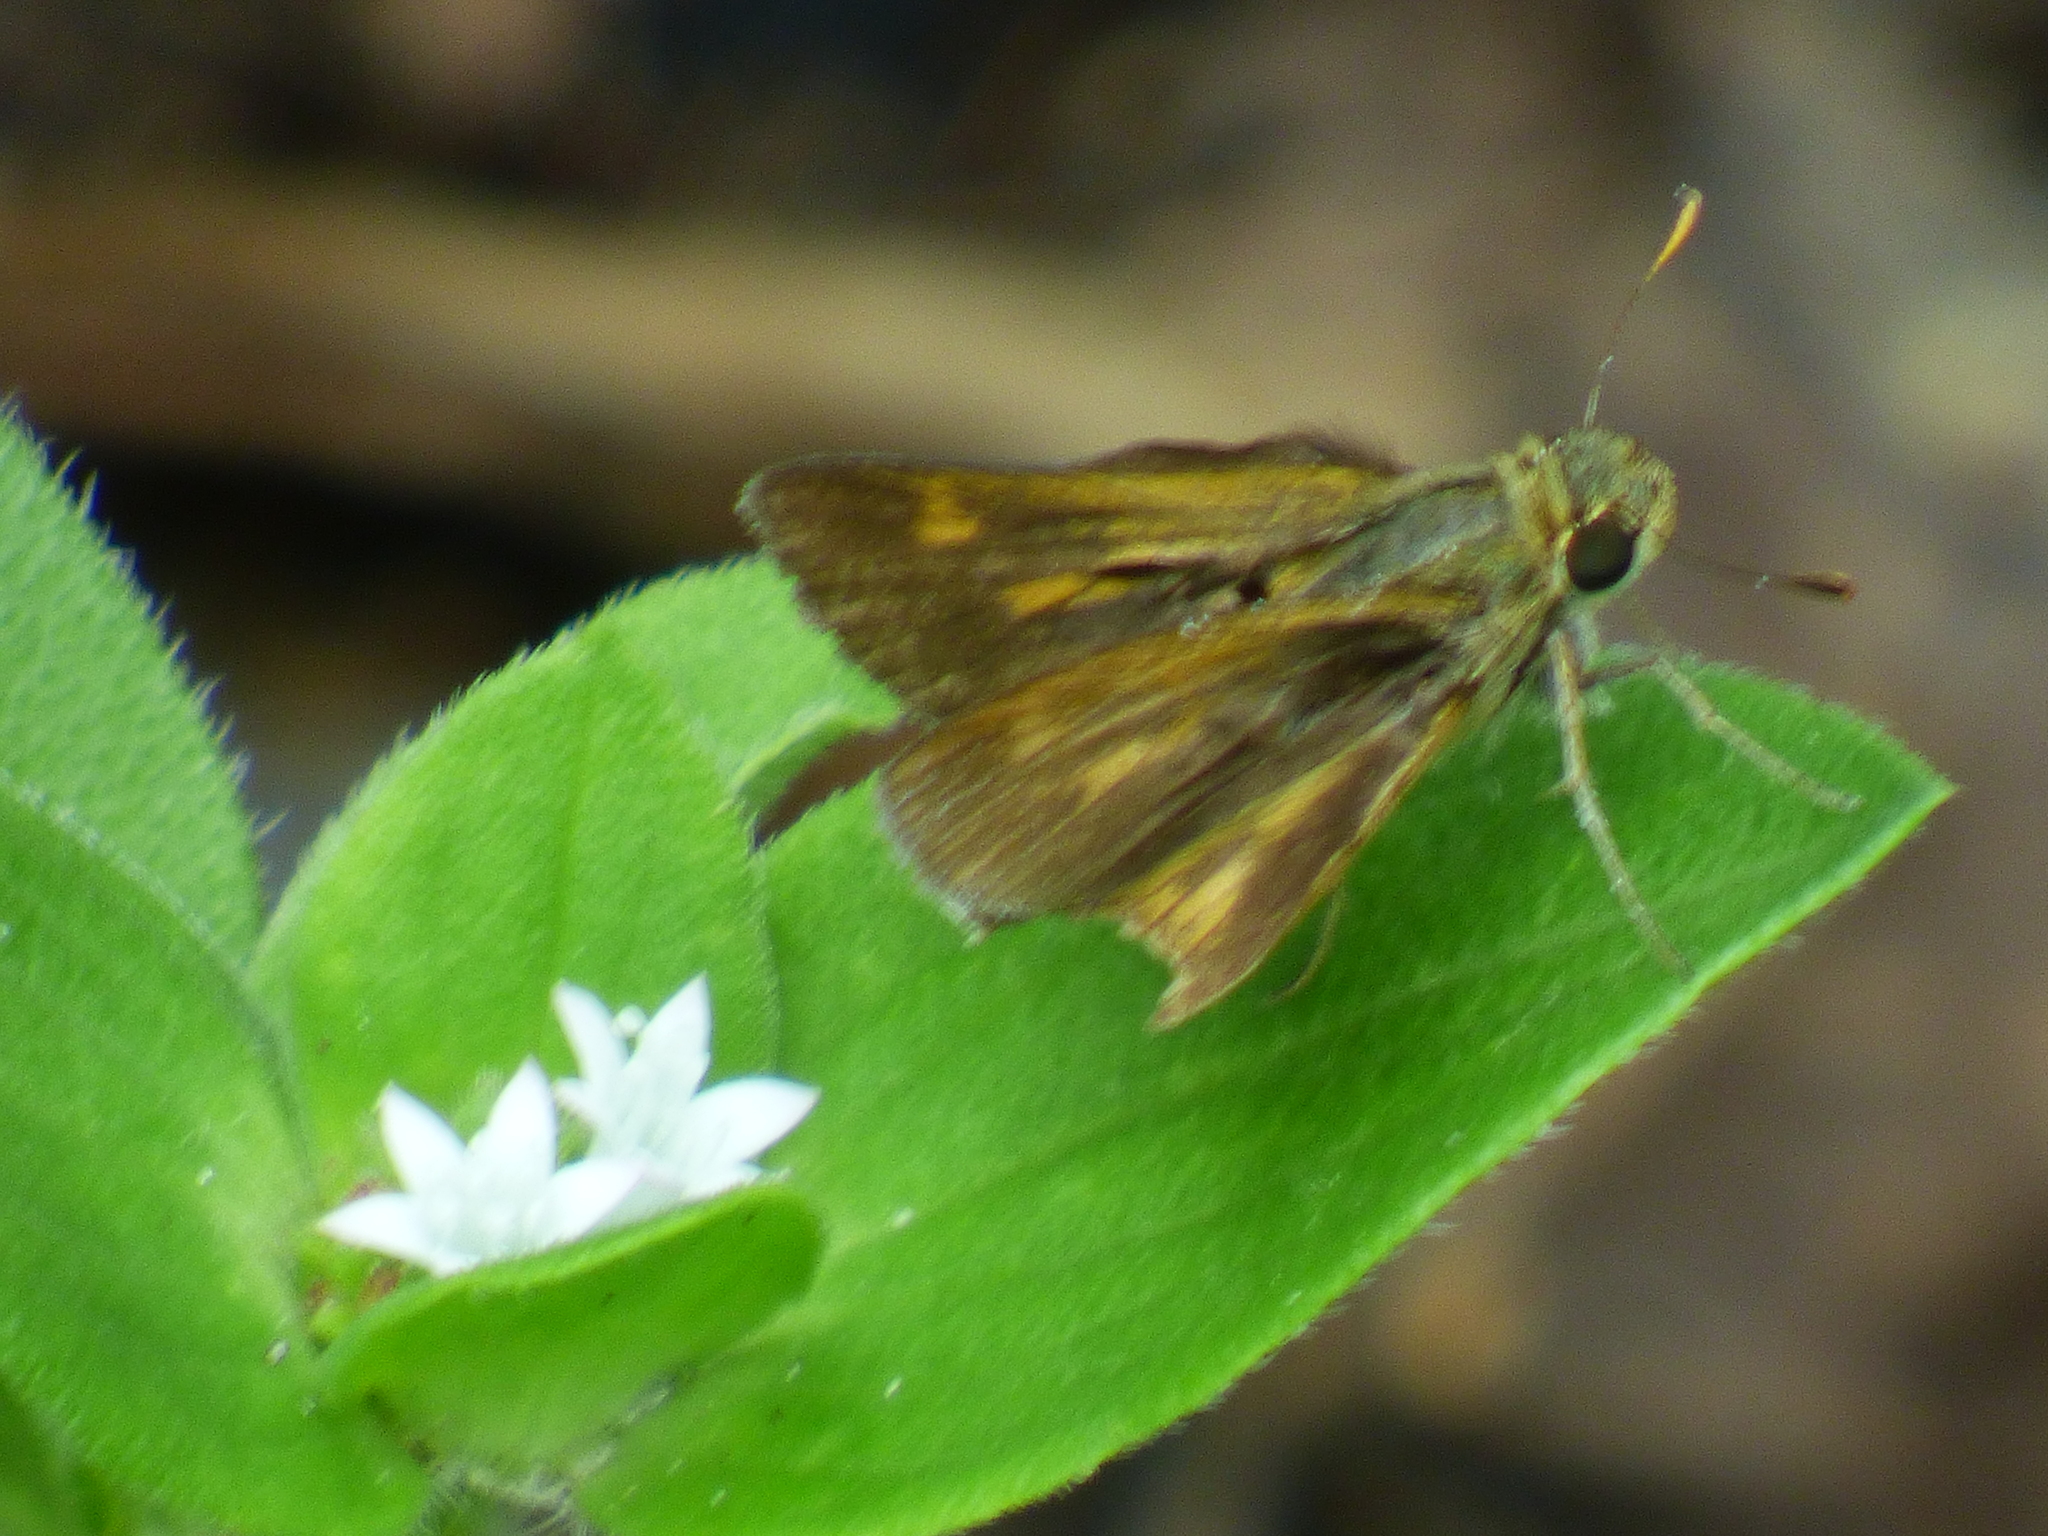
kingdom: Animalia
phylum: Arthropoda
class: Insecta
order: Lepidoptera
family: Hesperiidae
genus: Polites
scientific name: Polites otho
